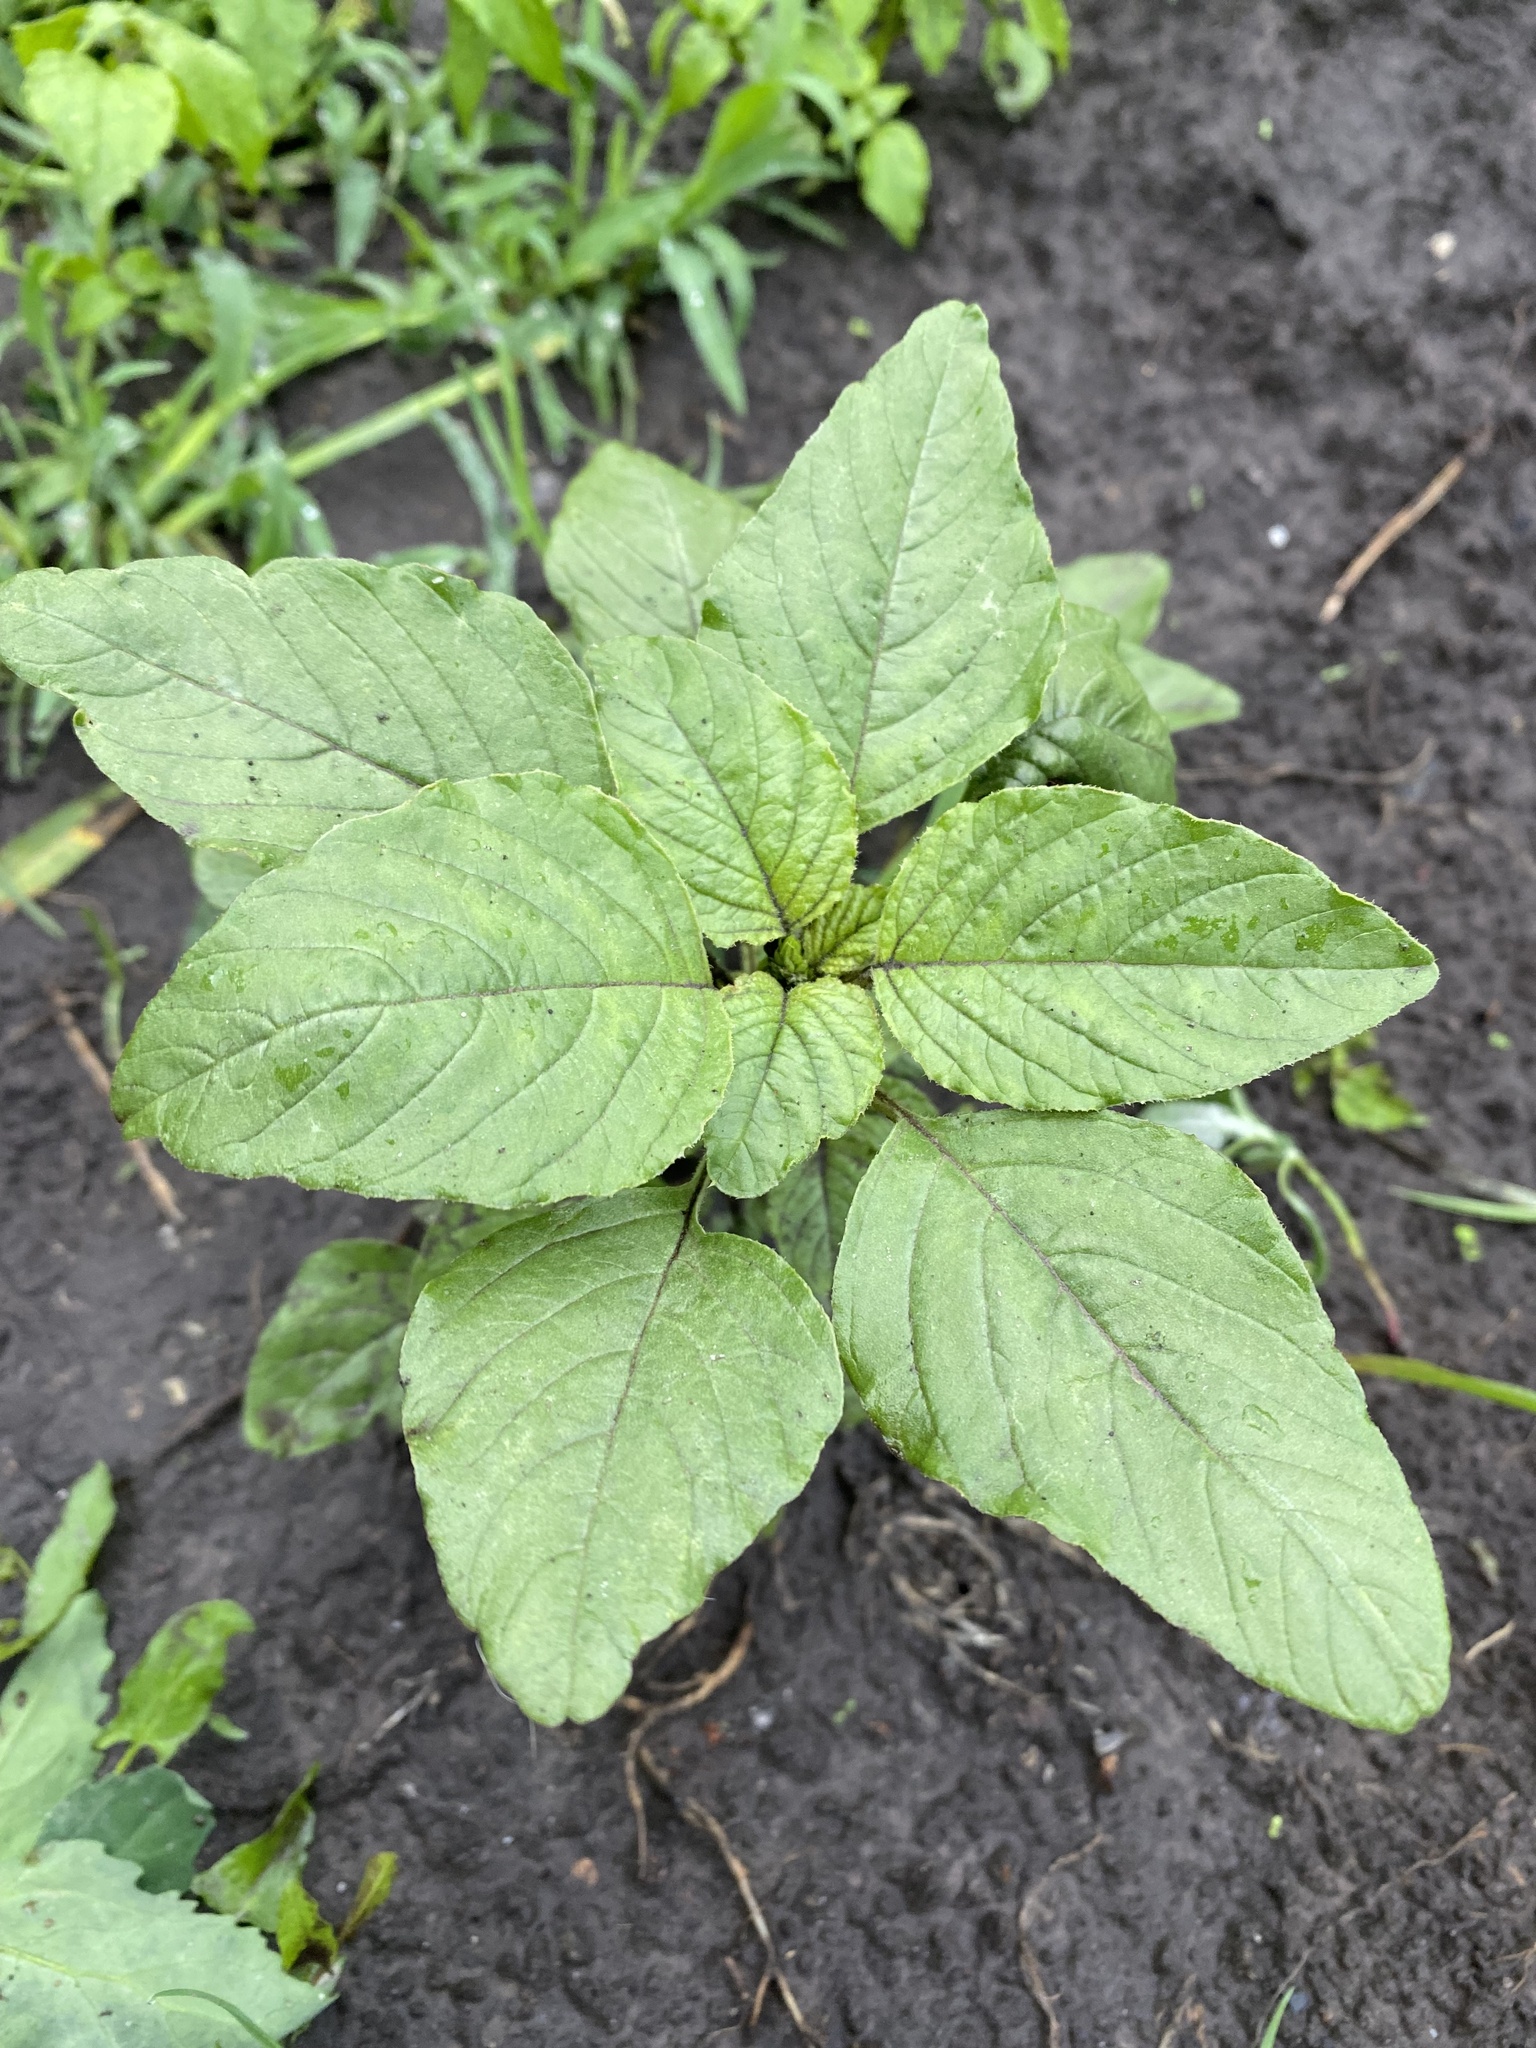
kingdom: Plantae
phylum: Tracheophyta
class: Magnoliopsida
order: Caryophyllales
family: Amaranthaceae
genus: Amaranthus
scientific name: Amaranthus retroflexus
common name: Redroot amaranth
